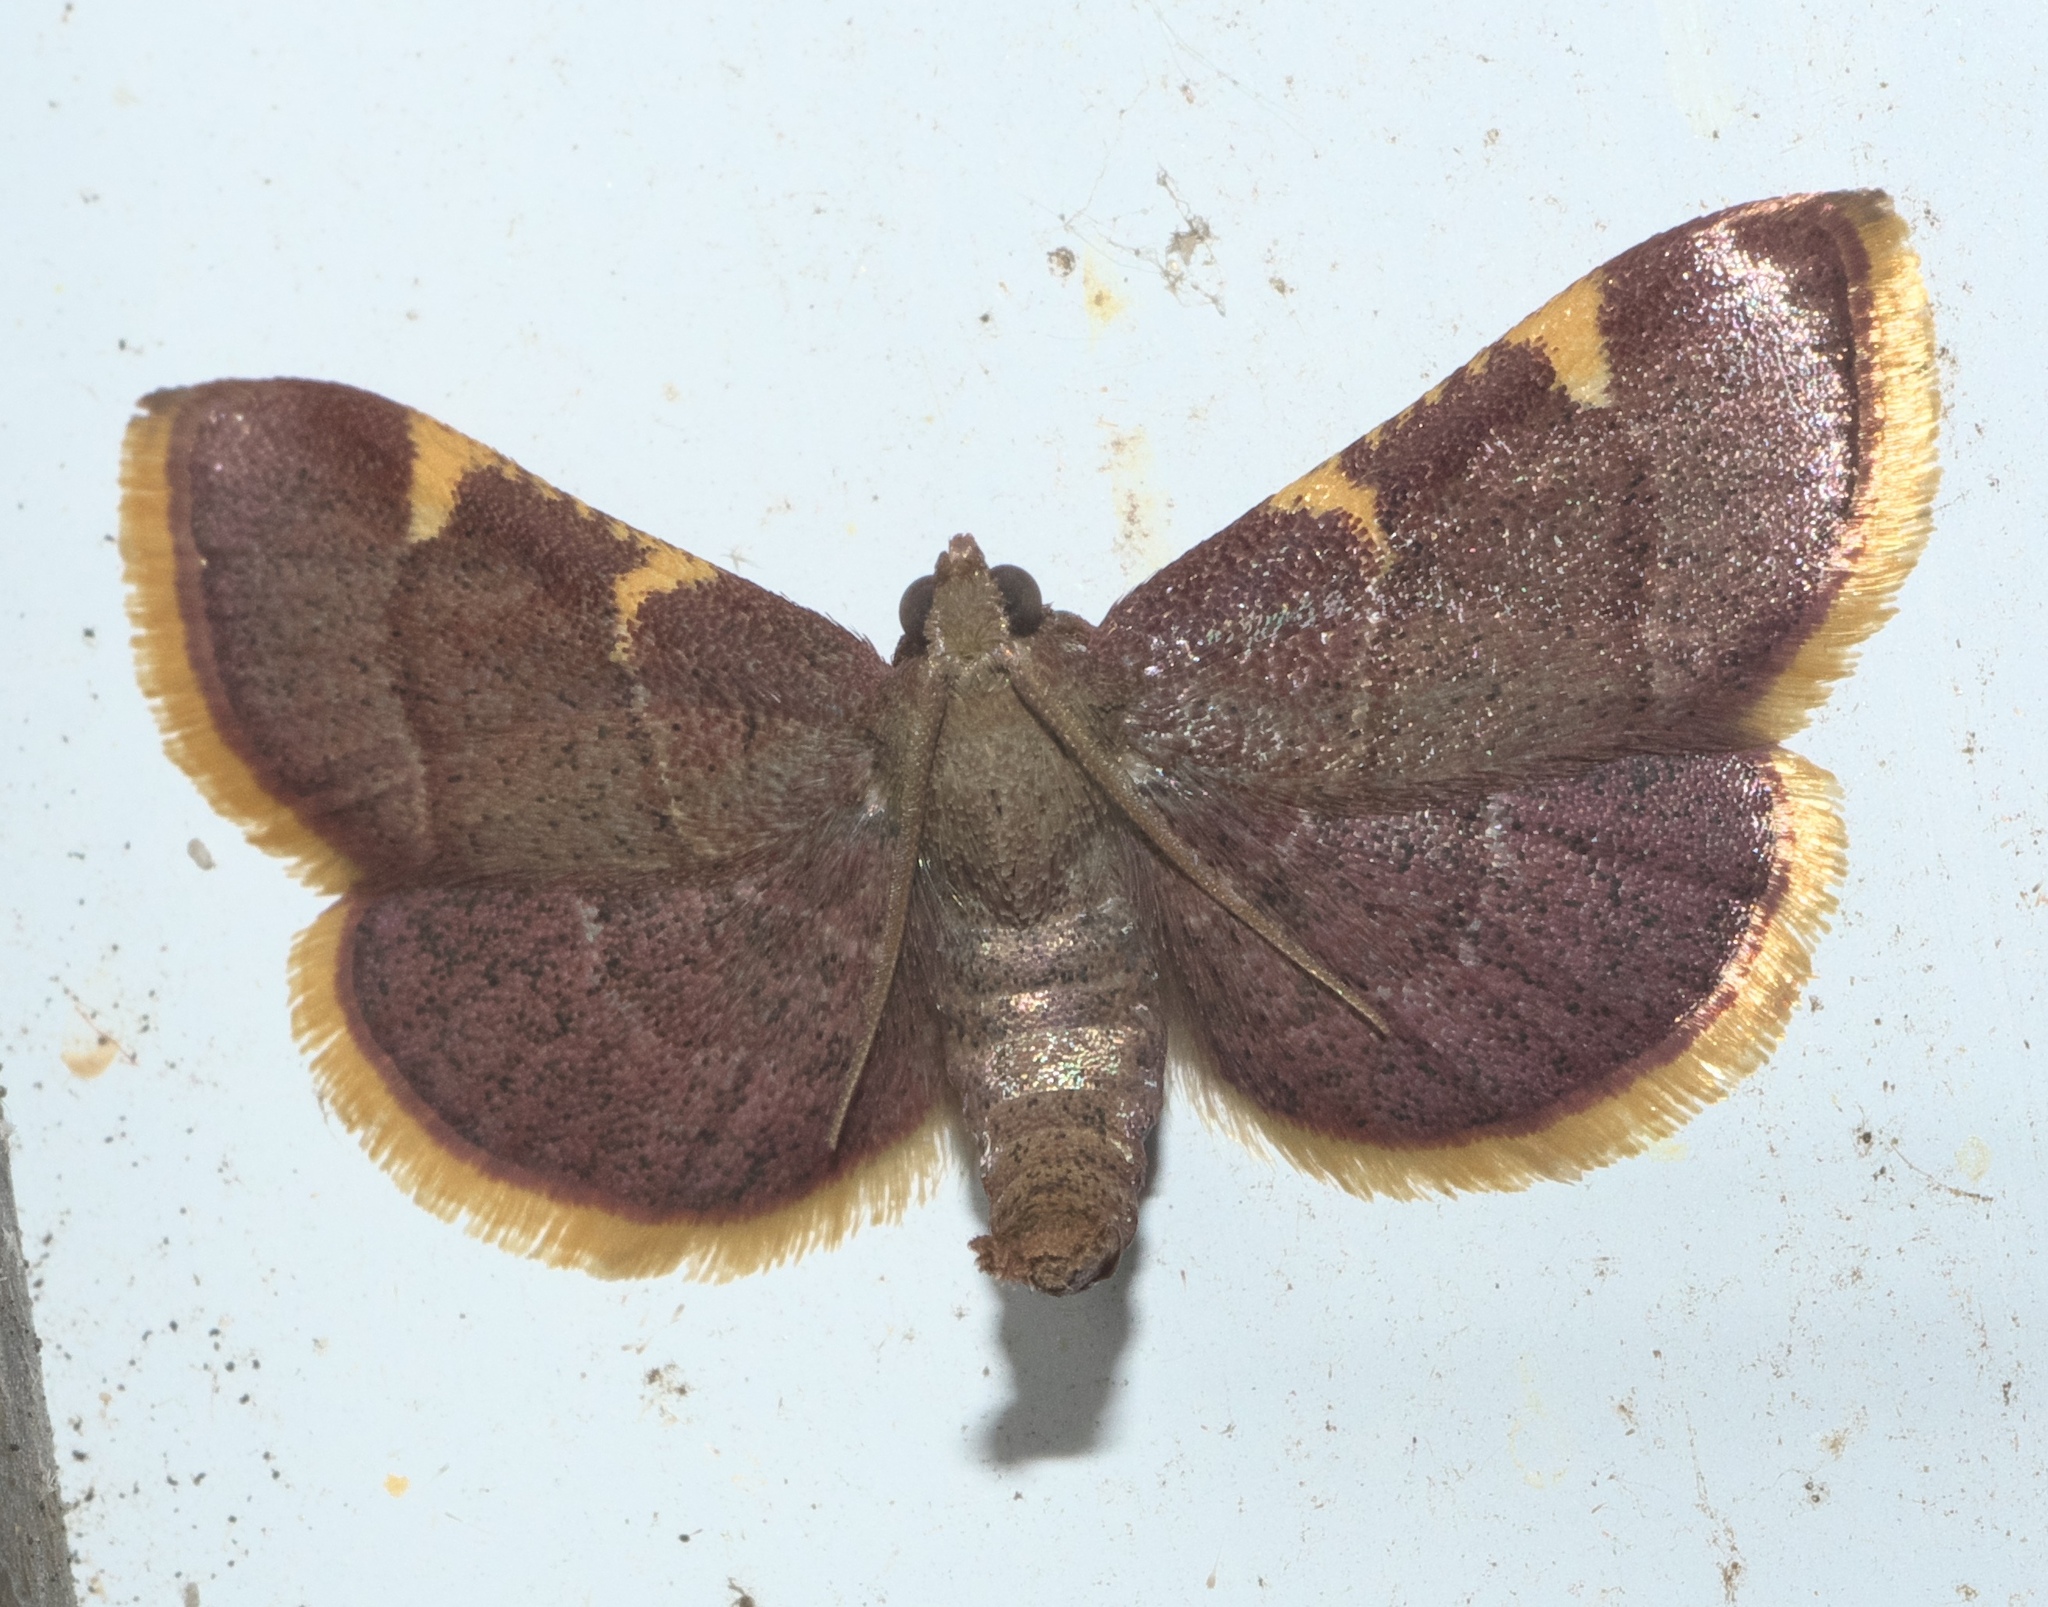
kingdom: Animalia
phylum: Arthropoda
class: Insecta
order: Lepidoptera
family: Pyralidae
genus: Hypsopygia
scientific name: Hypsopygia olinalis
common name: Yellow-fringed dolichomia moth
